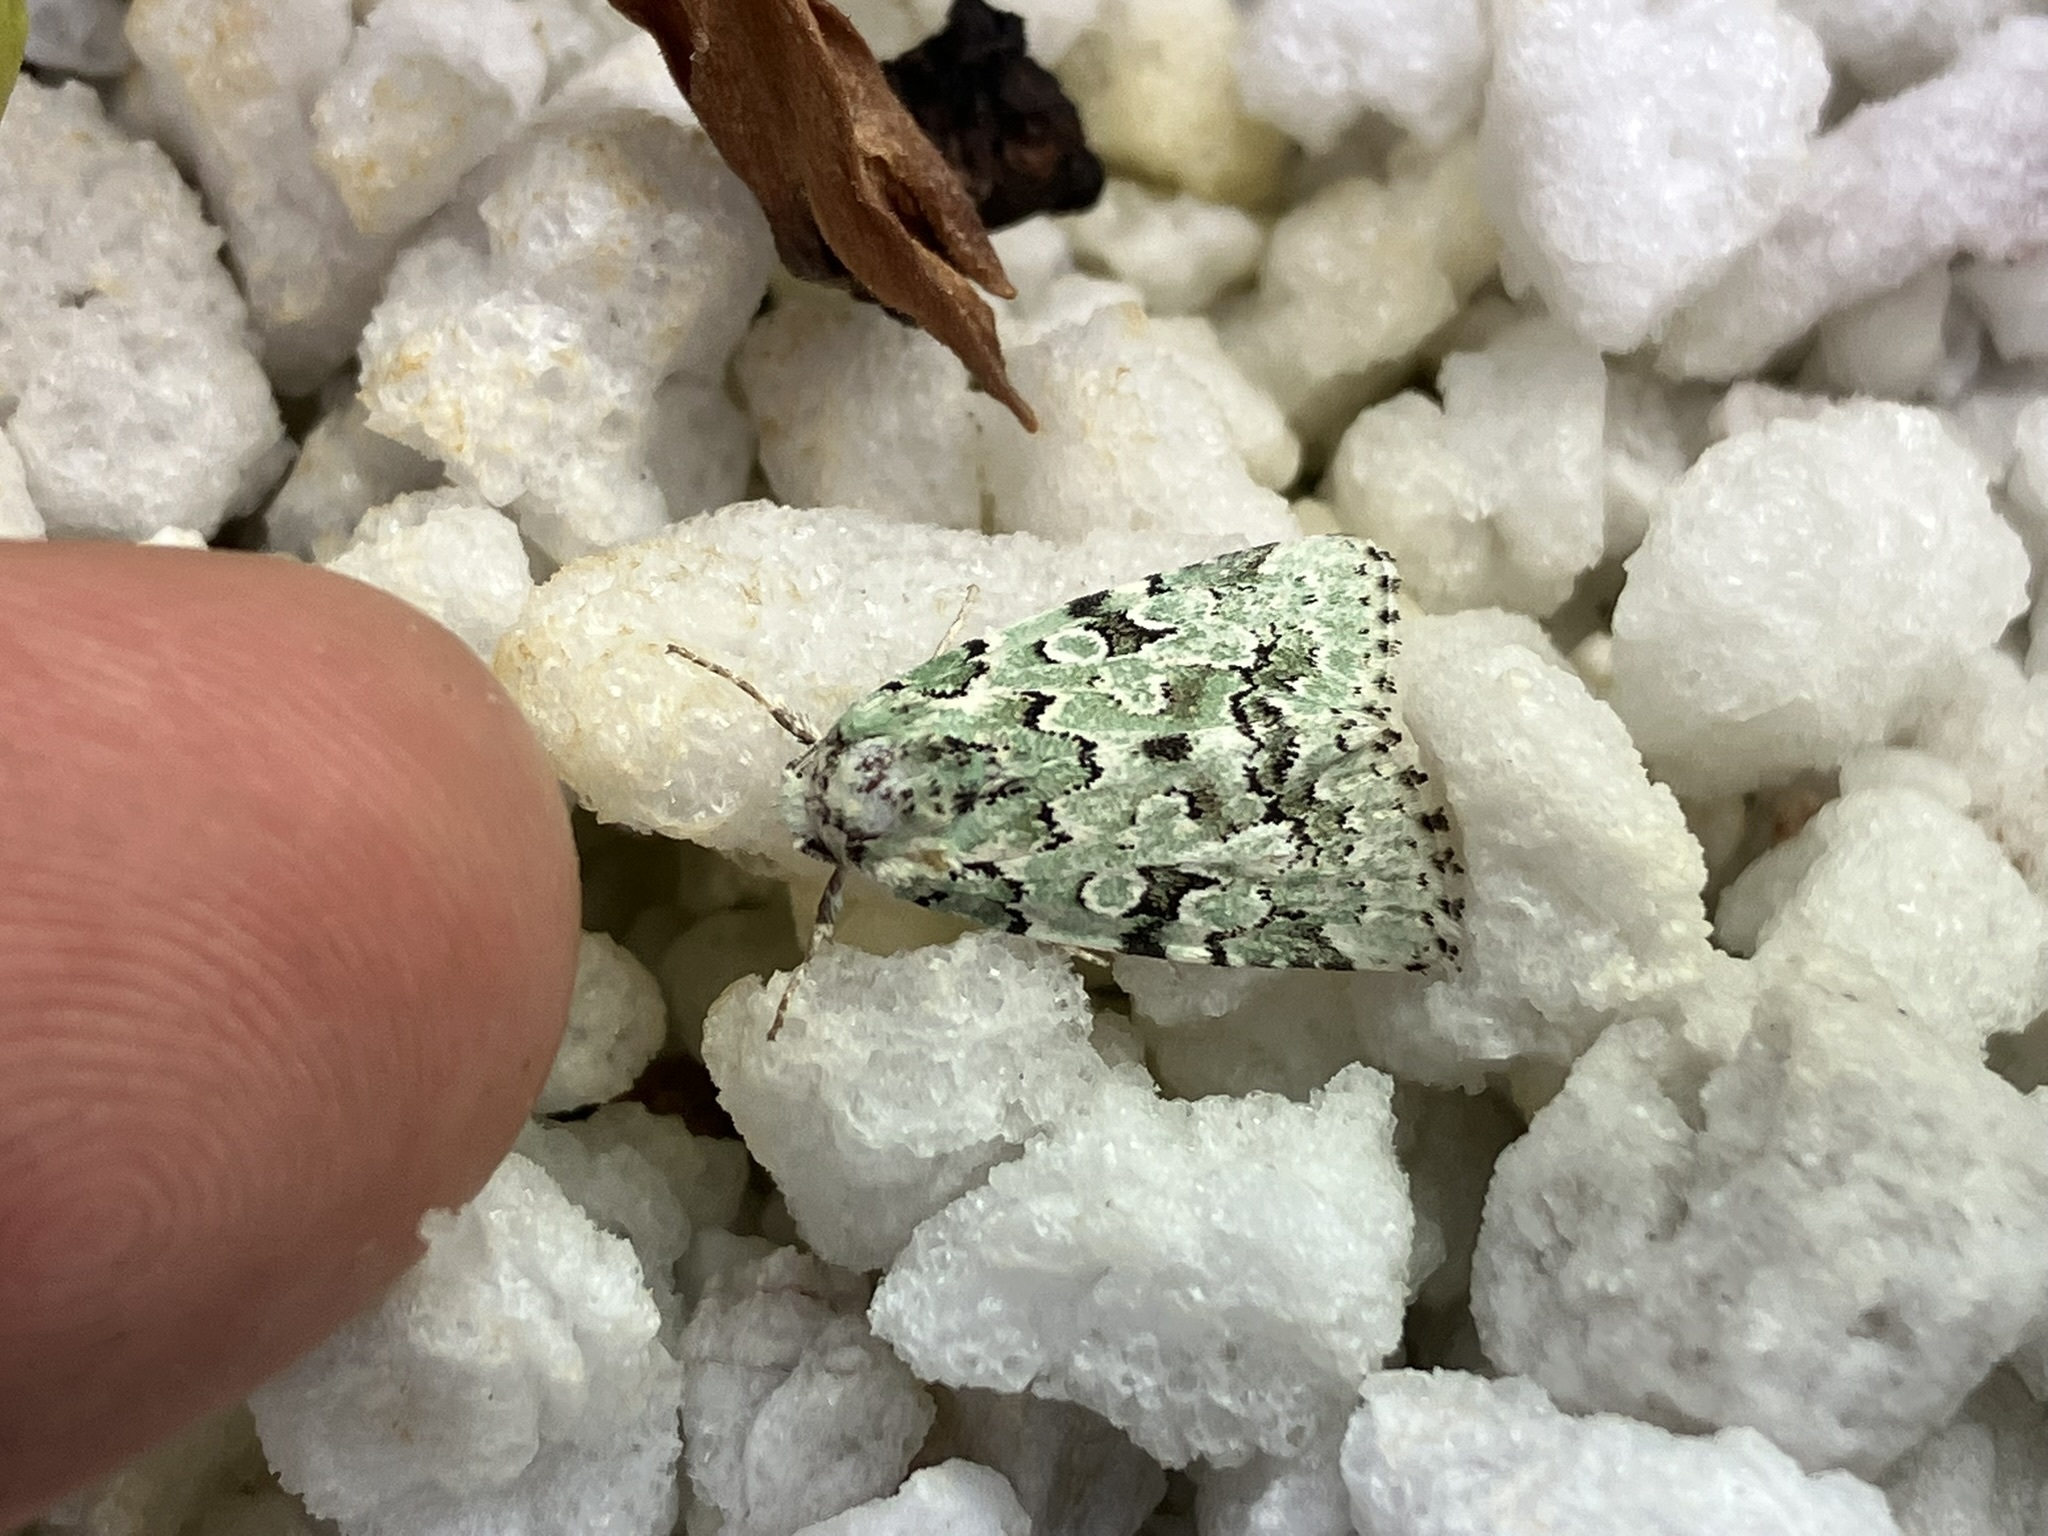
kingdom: Animalia
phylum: Arthropoda
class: Insecta
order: Lepidoptera
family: Noctuidae
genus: Bryolymnia
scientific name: Bryolymnia viridata
